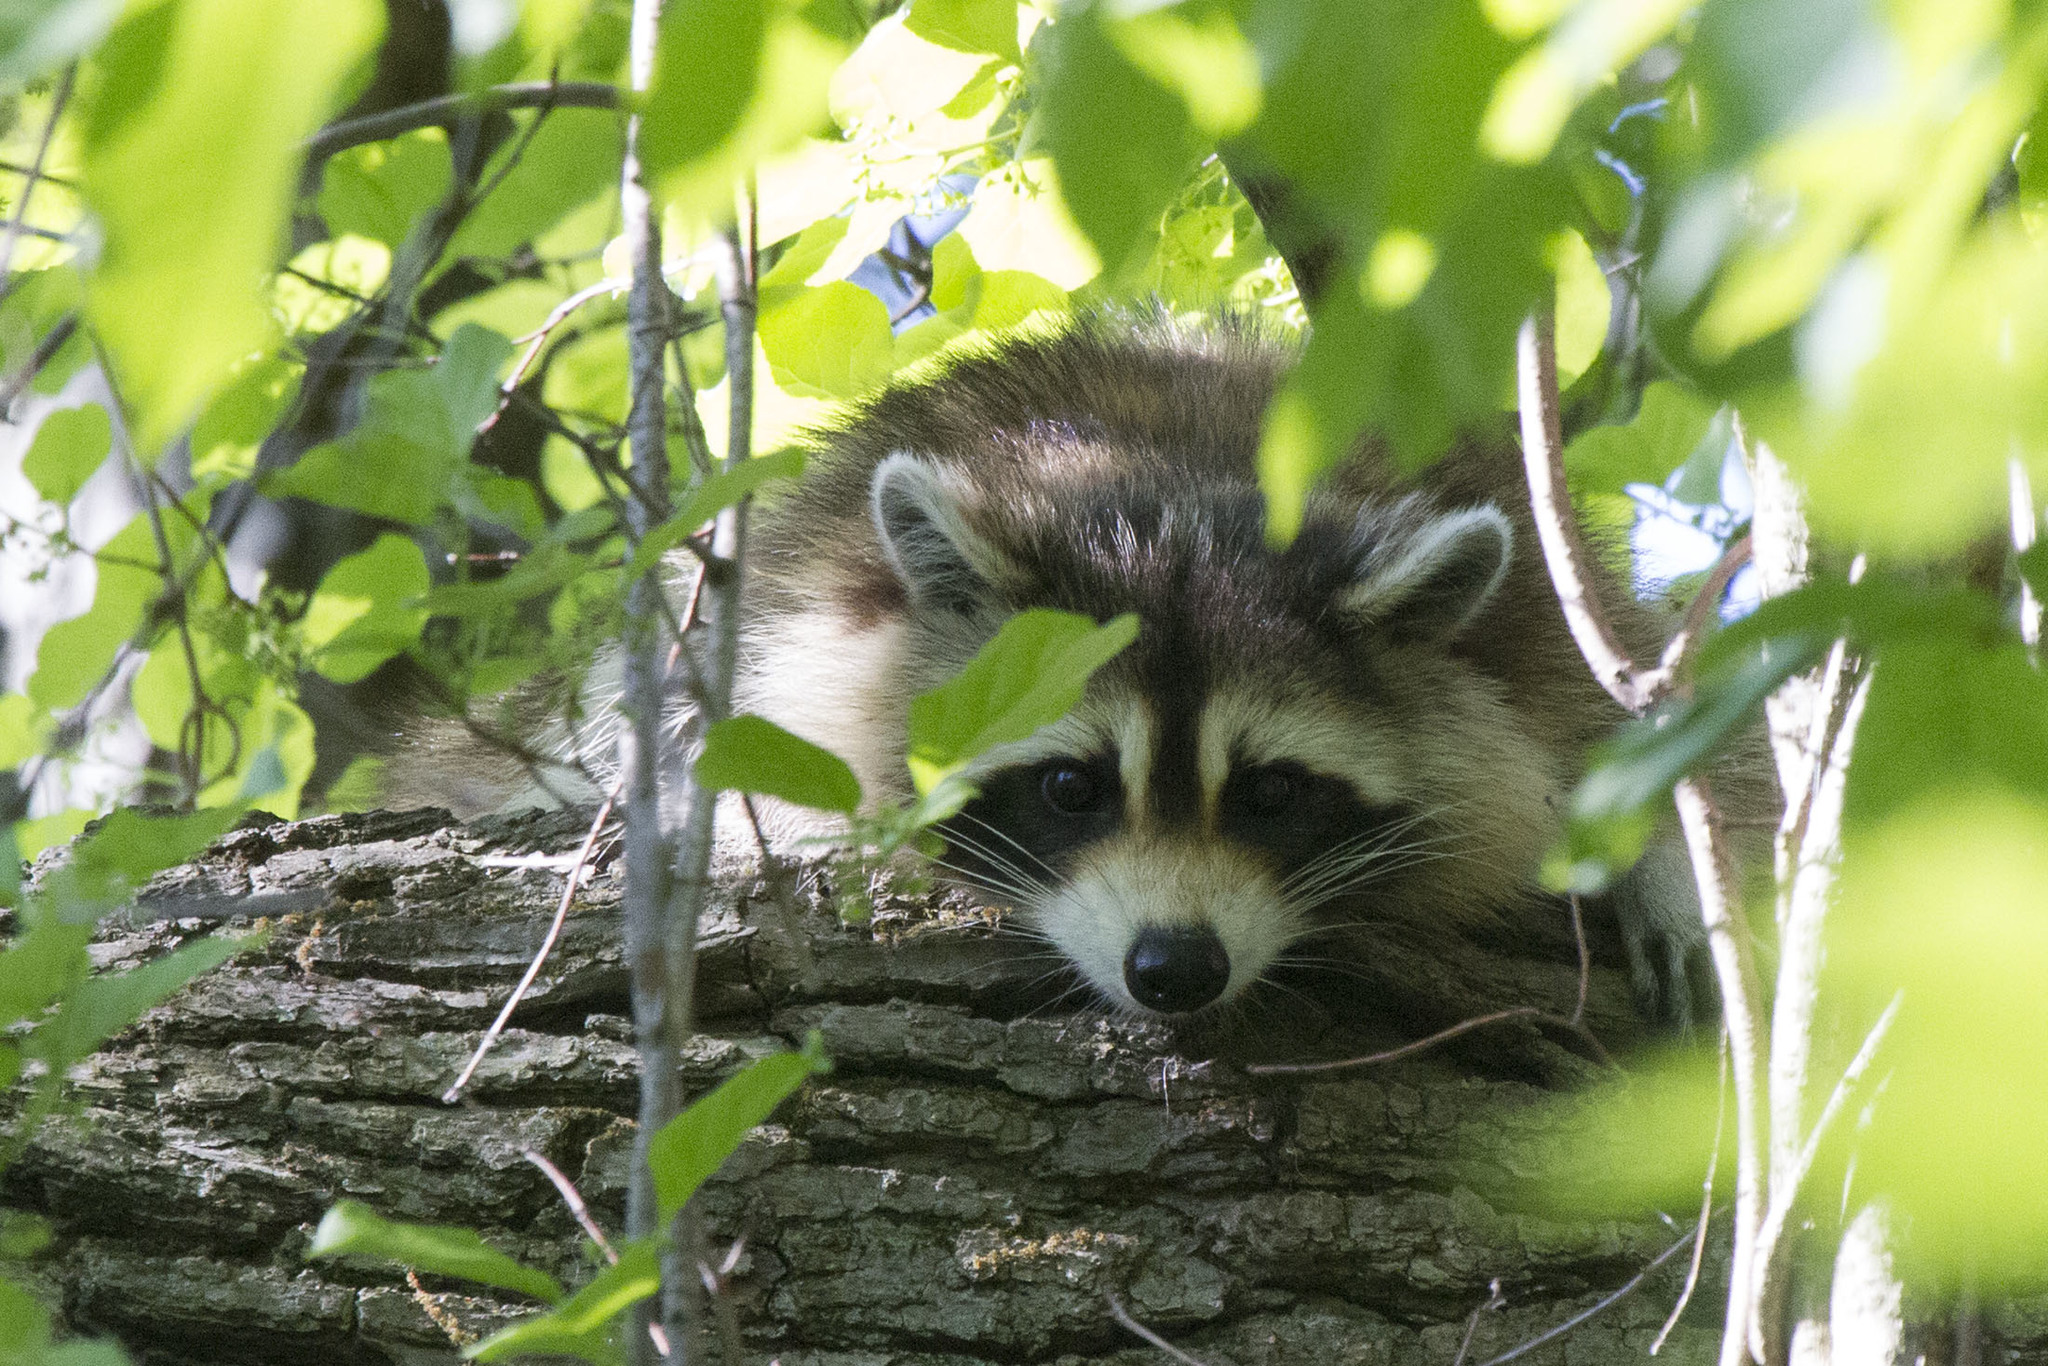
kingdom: Animalia
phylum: Chordata
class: Mammalia
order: Carnivora
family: Procyonidae
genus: Procyon
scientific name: Procyon lotor
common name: Raccoon
